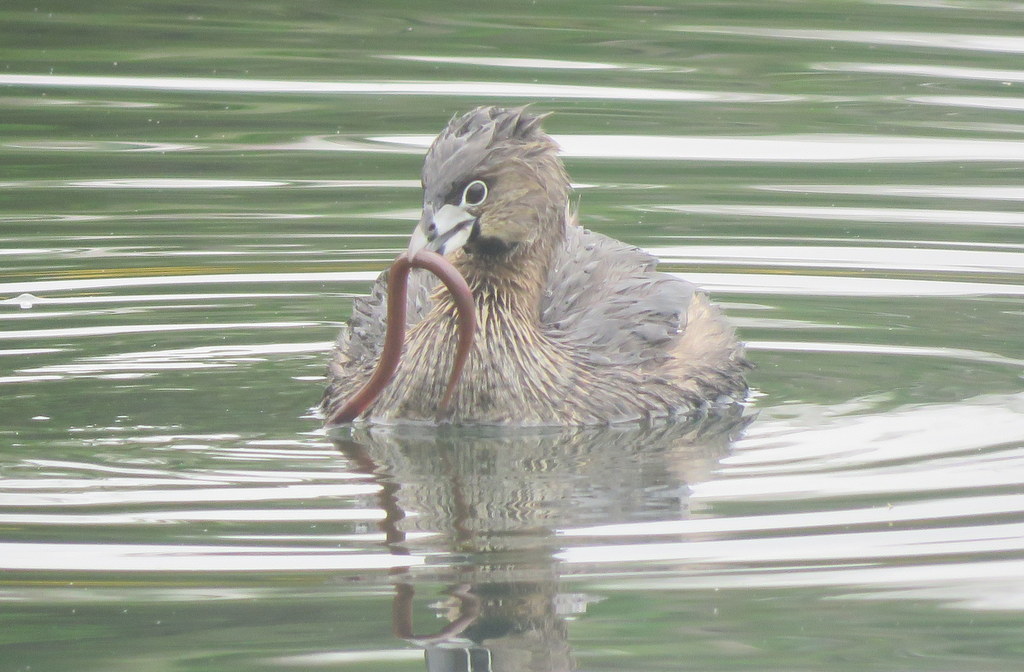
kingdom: Animalia
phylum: Chordata
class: Aves
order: Podicipediformes
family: Podicipedidae
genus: Podilymbus
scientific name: Podilymbus podiceps
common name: Pied-billed grebe
